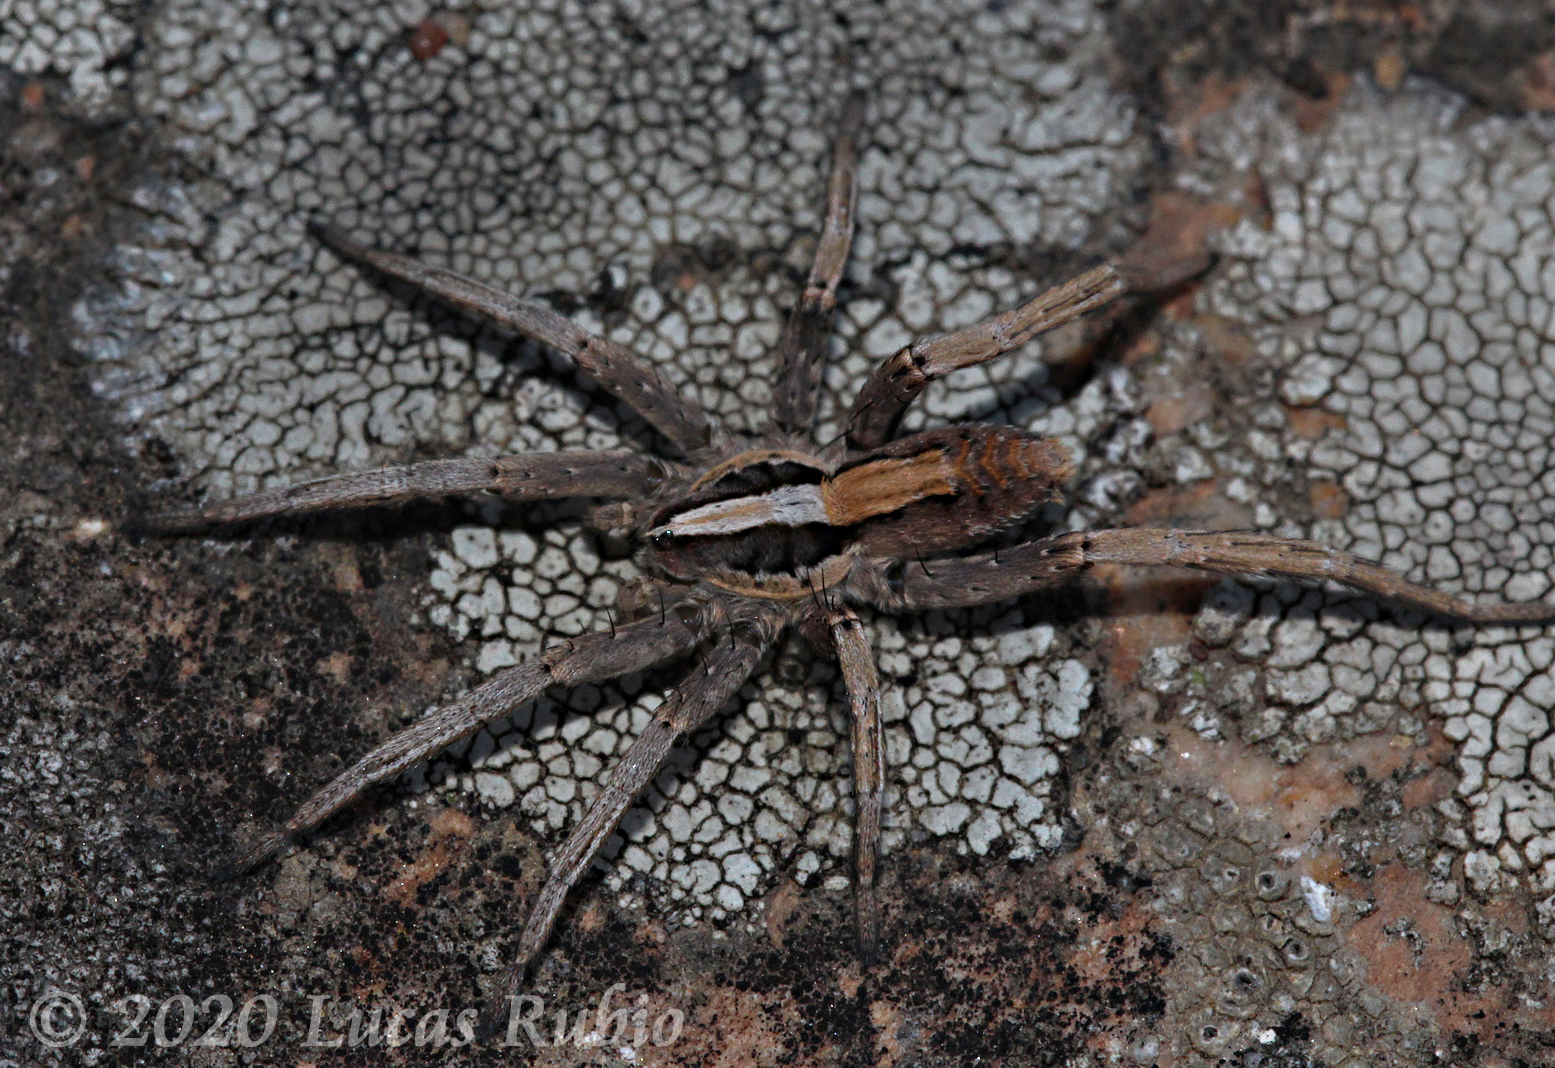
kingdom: Animalia
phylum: Arthropoda
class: Arachnida
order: Araneae
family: Xenoctenidae
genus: Odo
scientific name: Odo bruchi
